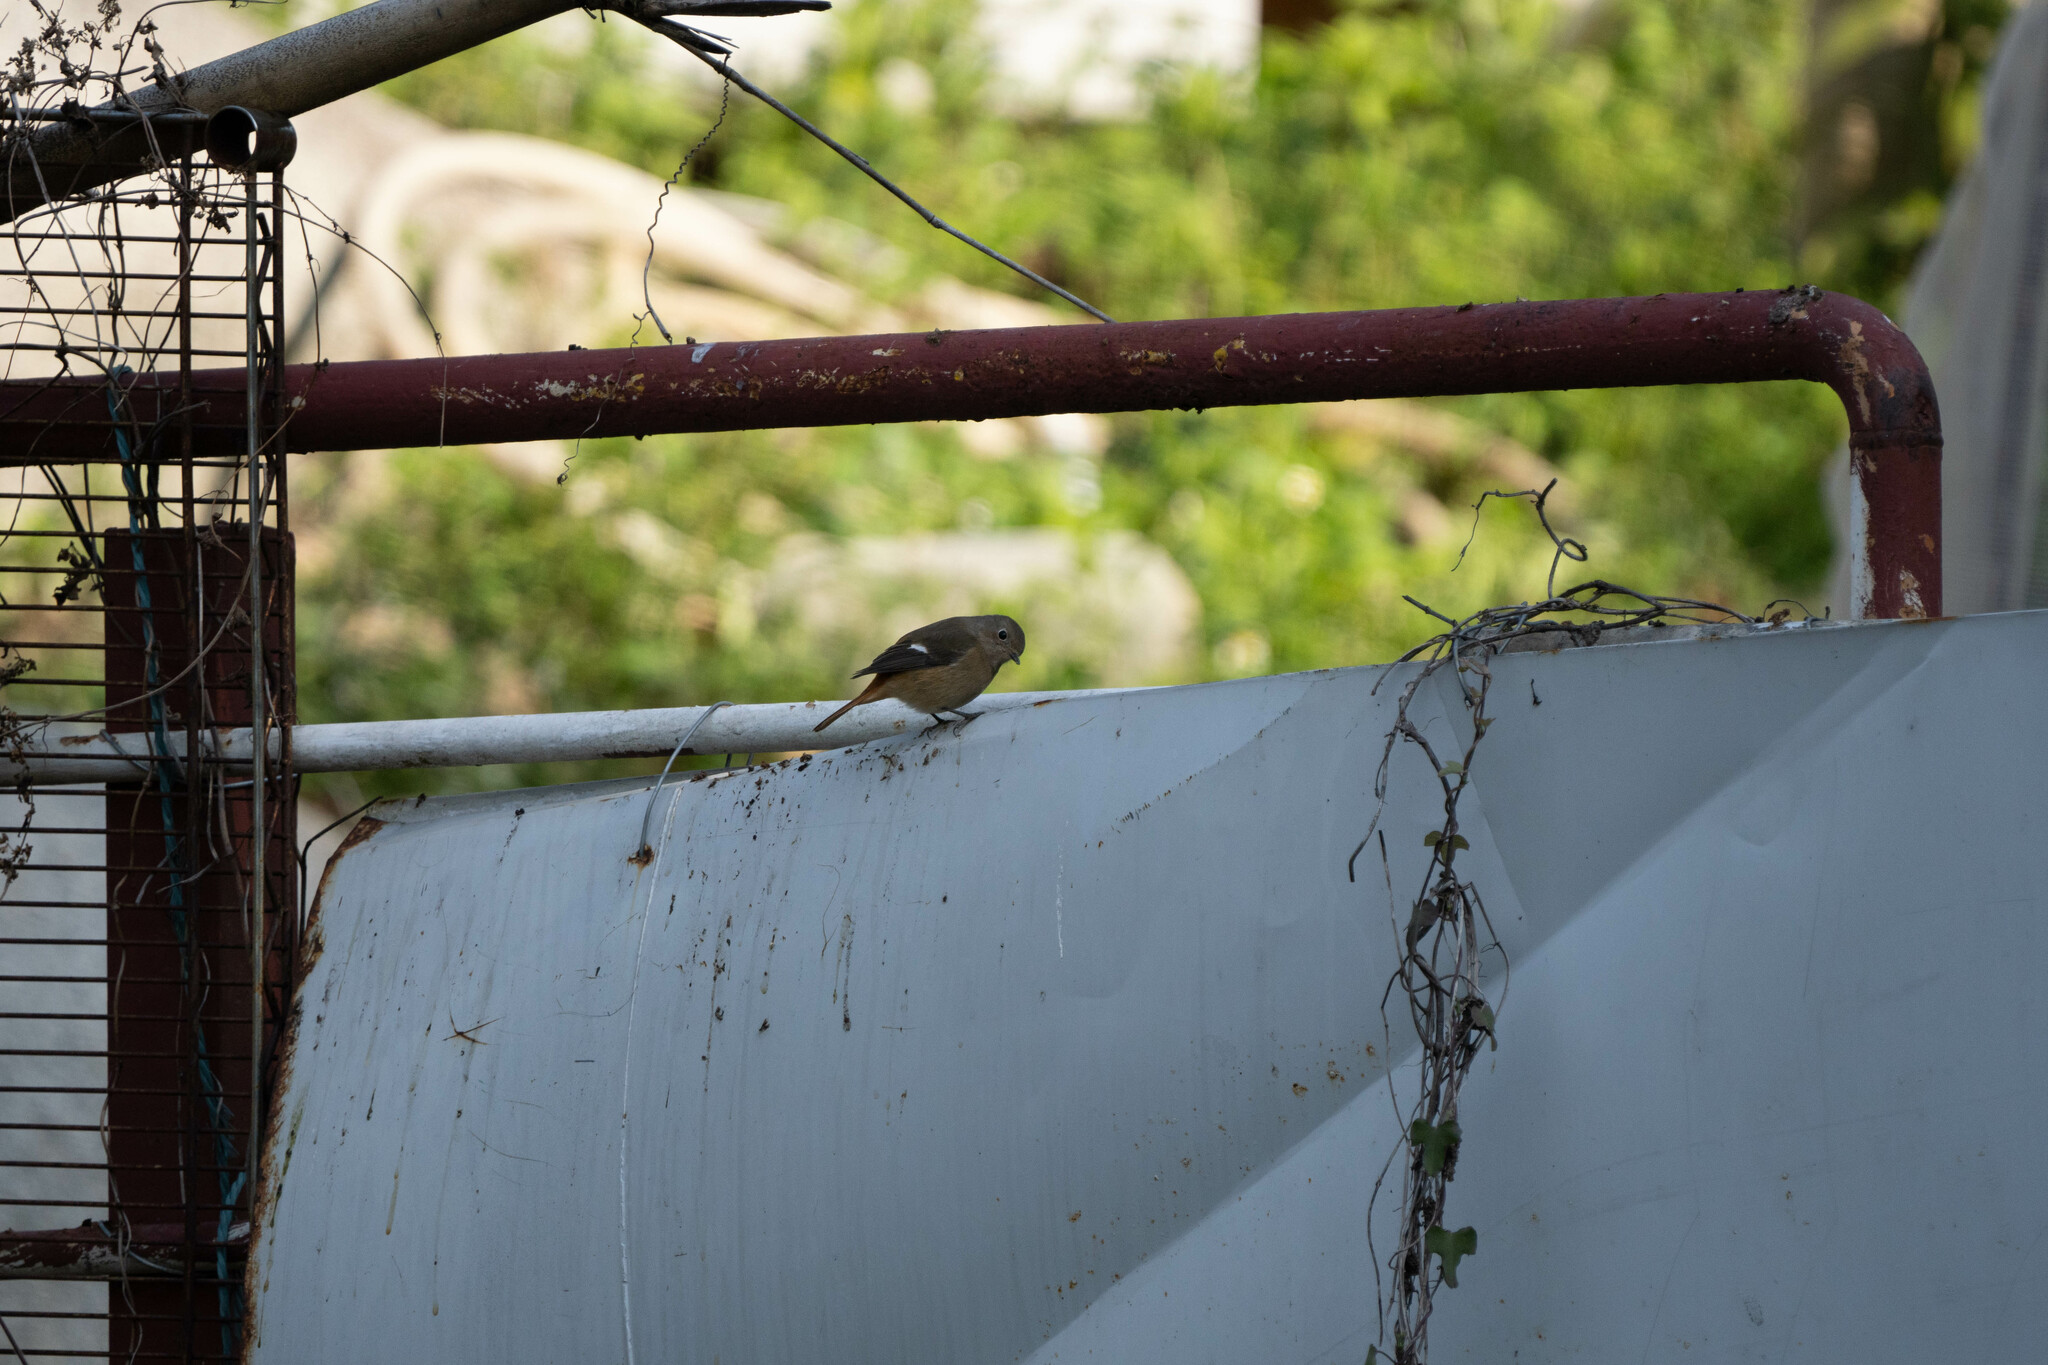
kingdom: Animalia
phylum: Chordata
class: Aves
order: Passeriformes
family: Muscicapidae
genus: Phoenicurus
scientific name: Phoenicurus auroreus
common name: Daurian redstart
